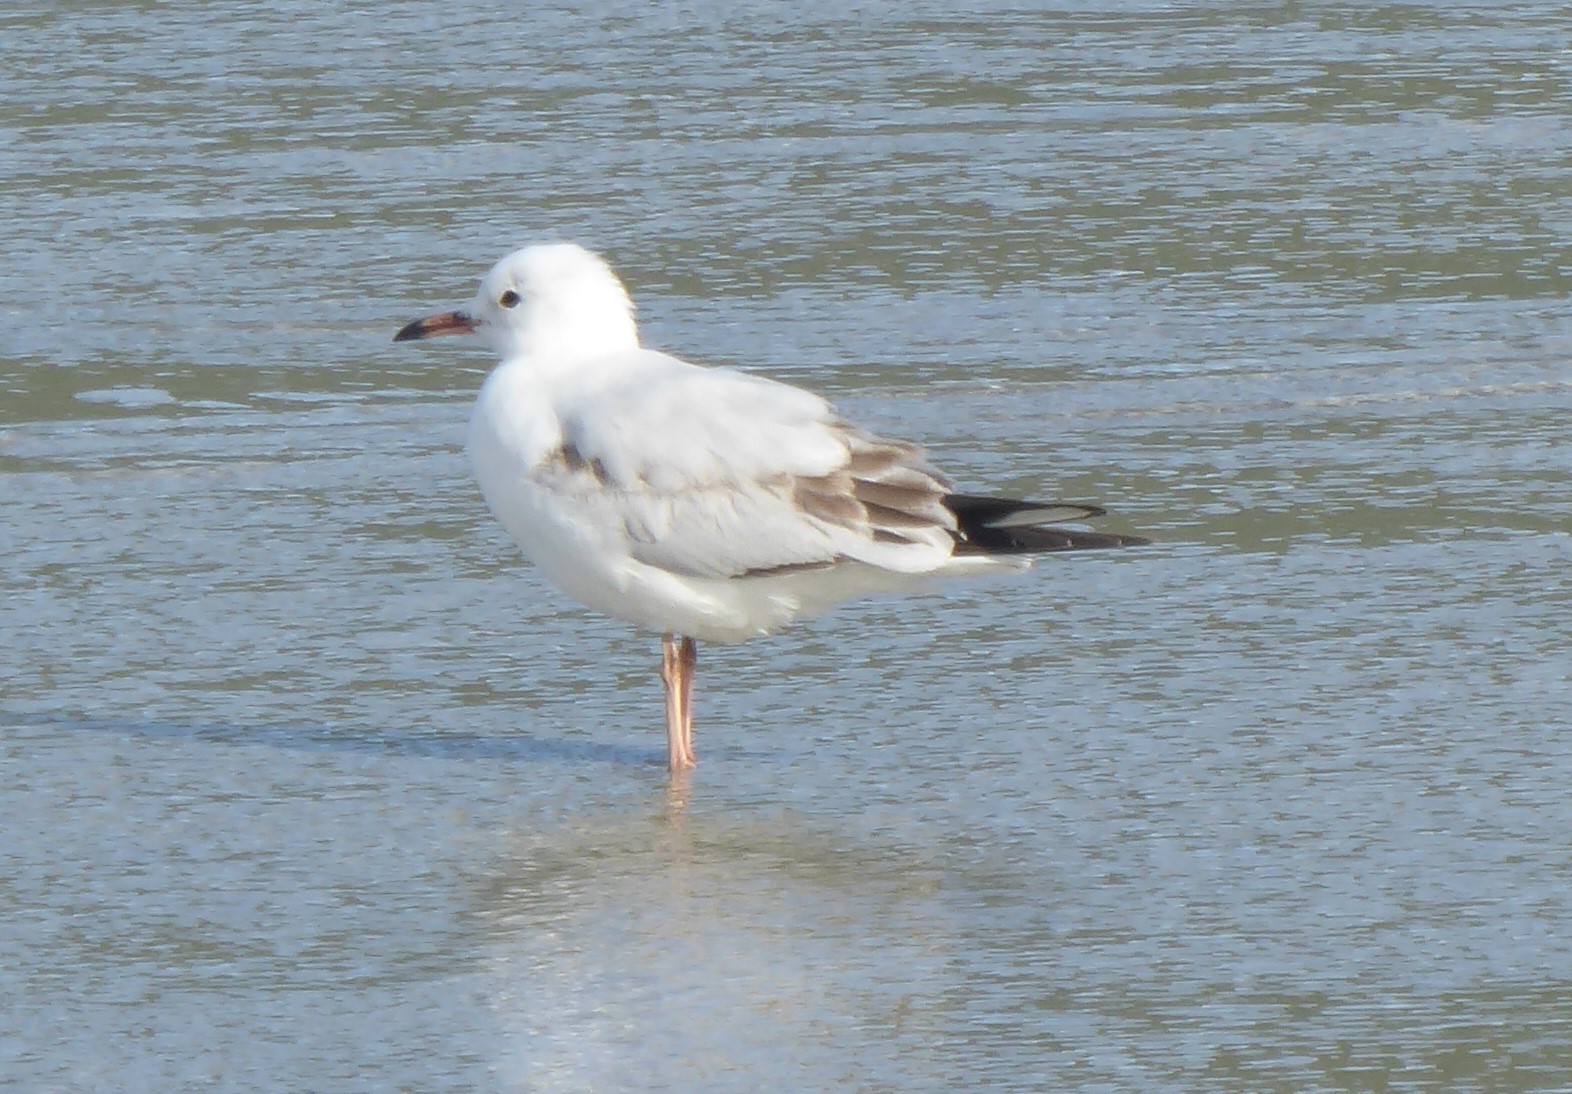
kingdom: Animalia
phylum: Chordata
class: Aves
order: Charadriiformes
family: Laridae
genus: Chroicocephalus
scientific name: Chroicocephalus bulleri
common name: Black-billed gull
